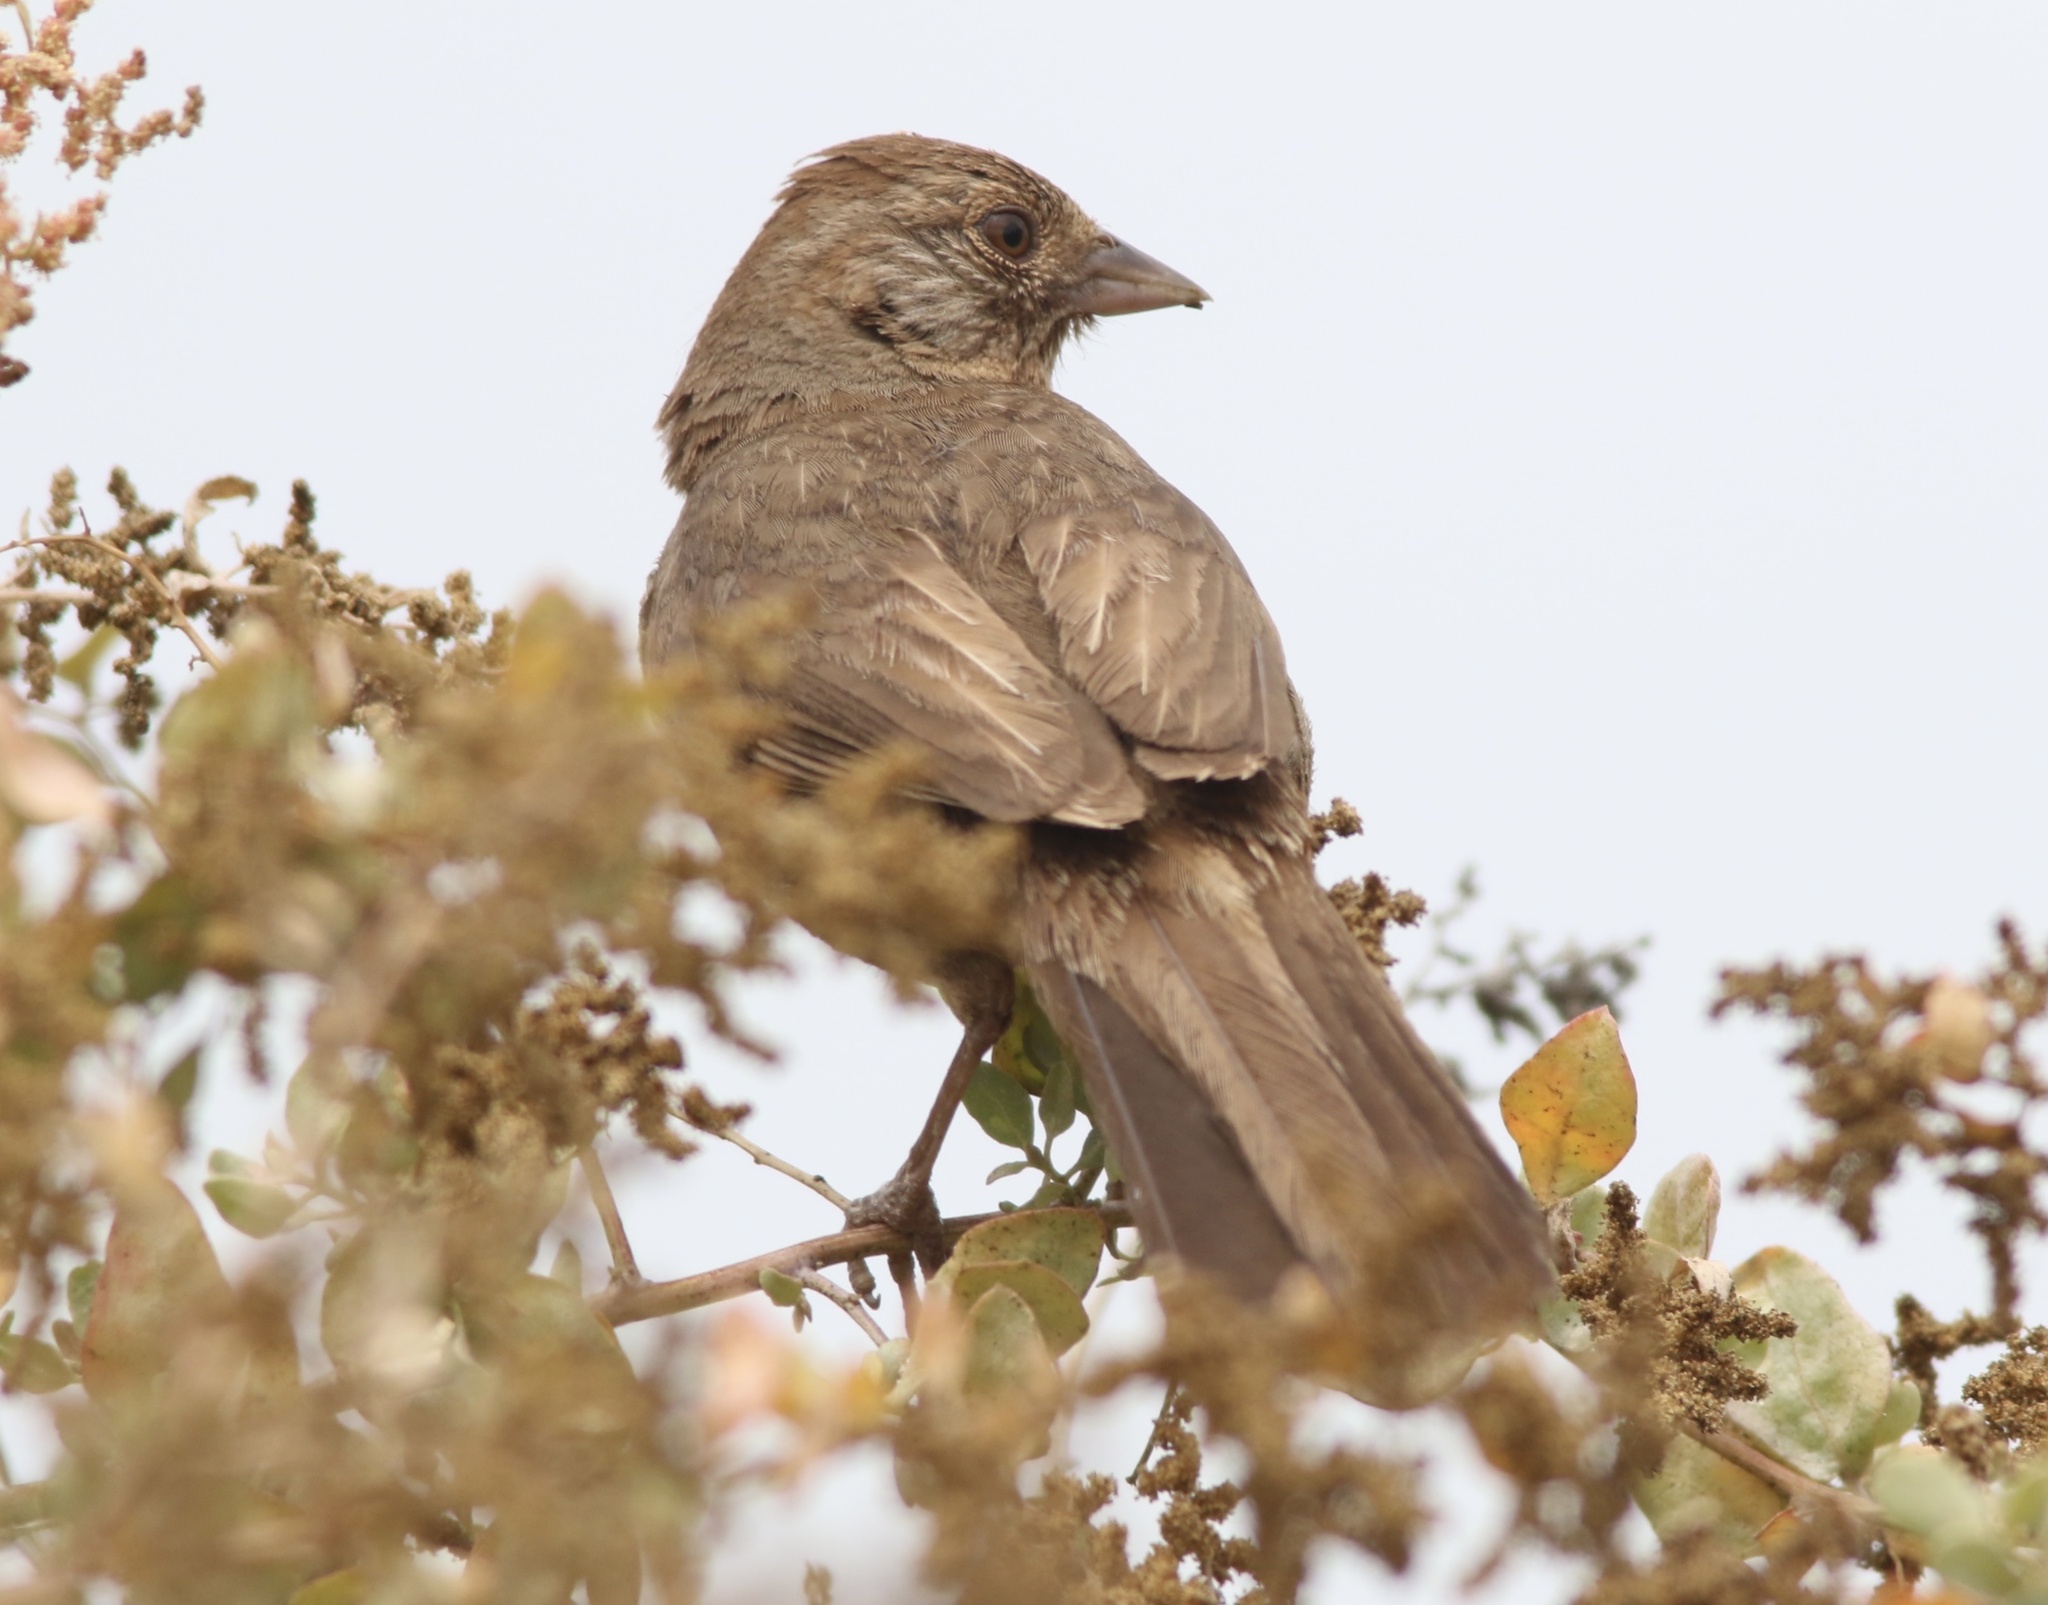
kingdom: Animalia
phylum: Chordata
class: Aves
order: Passeriformes
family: Passerellidae
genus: Melozone
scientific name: Melozone crissalis
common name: California towhee
